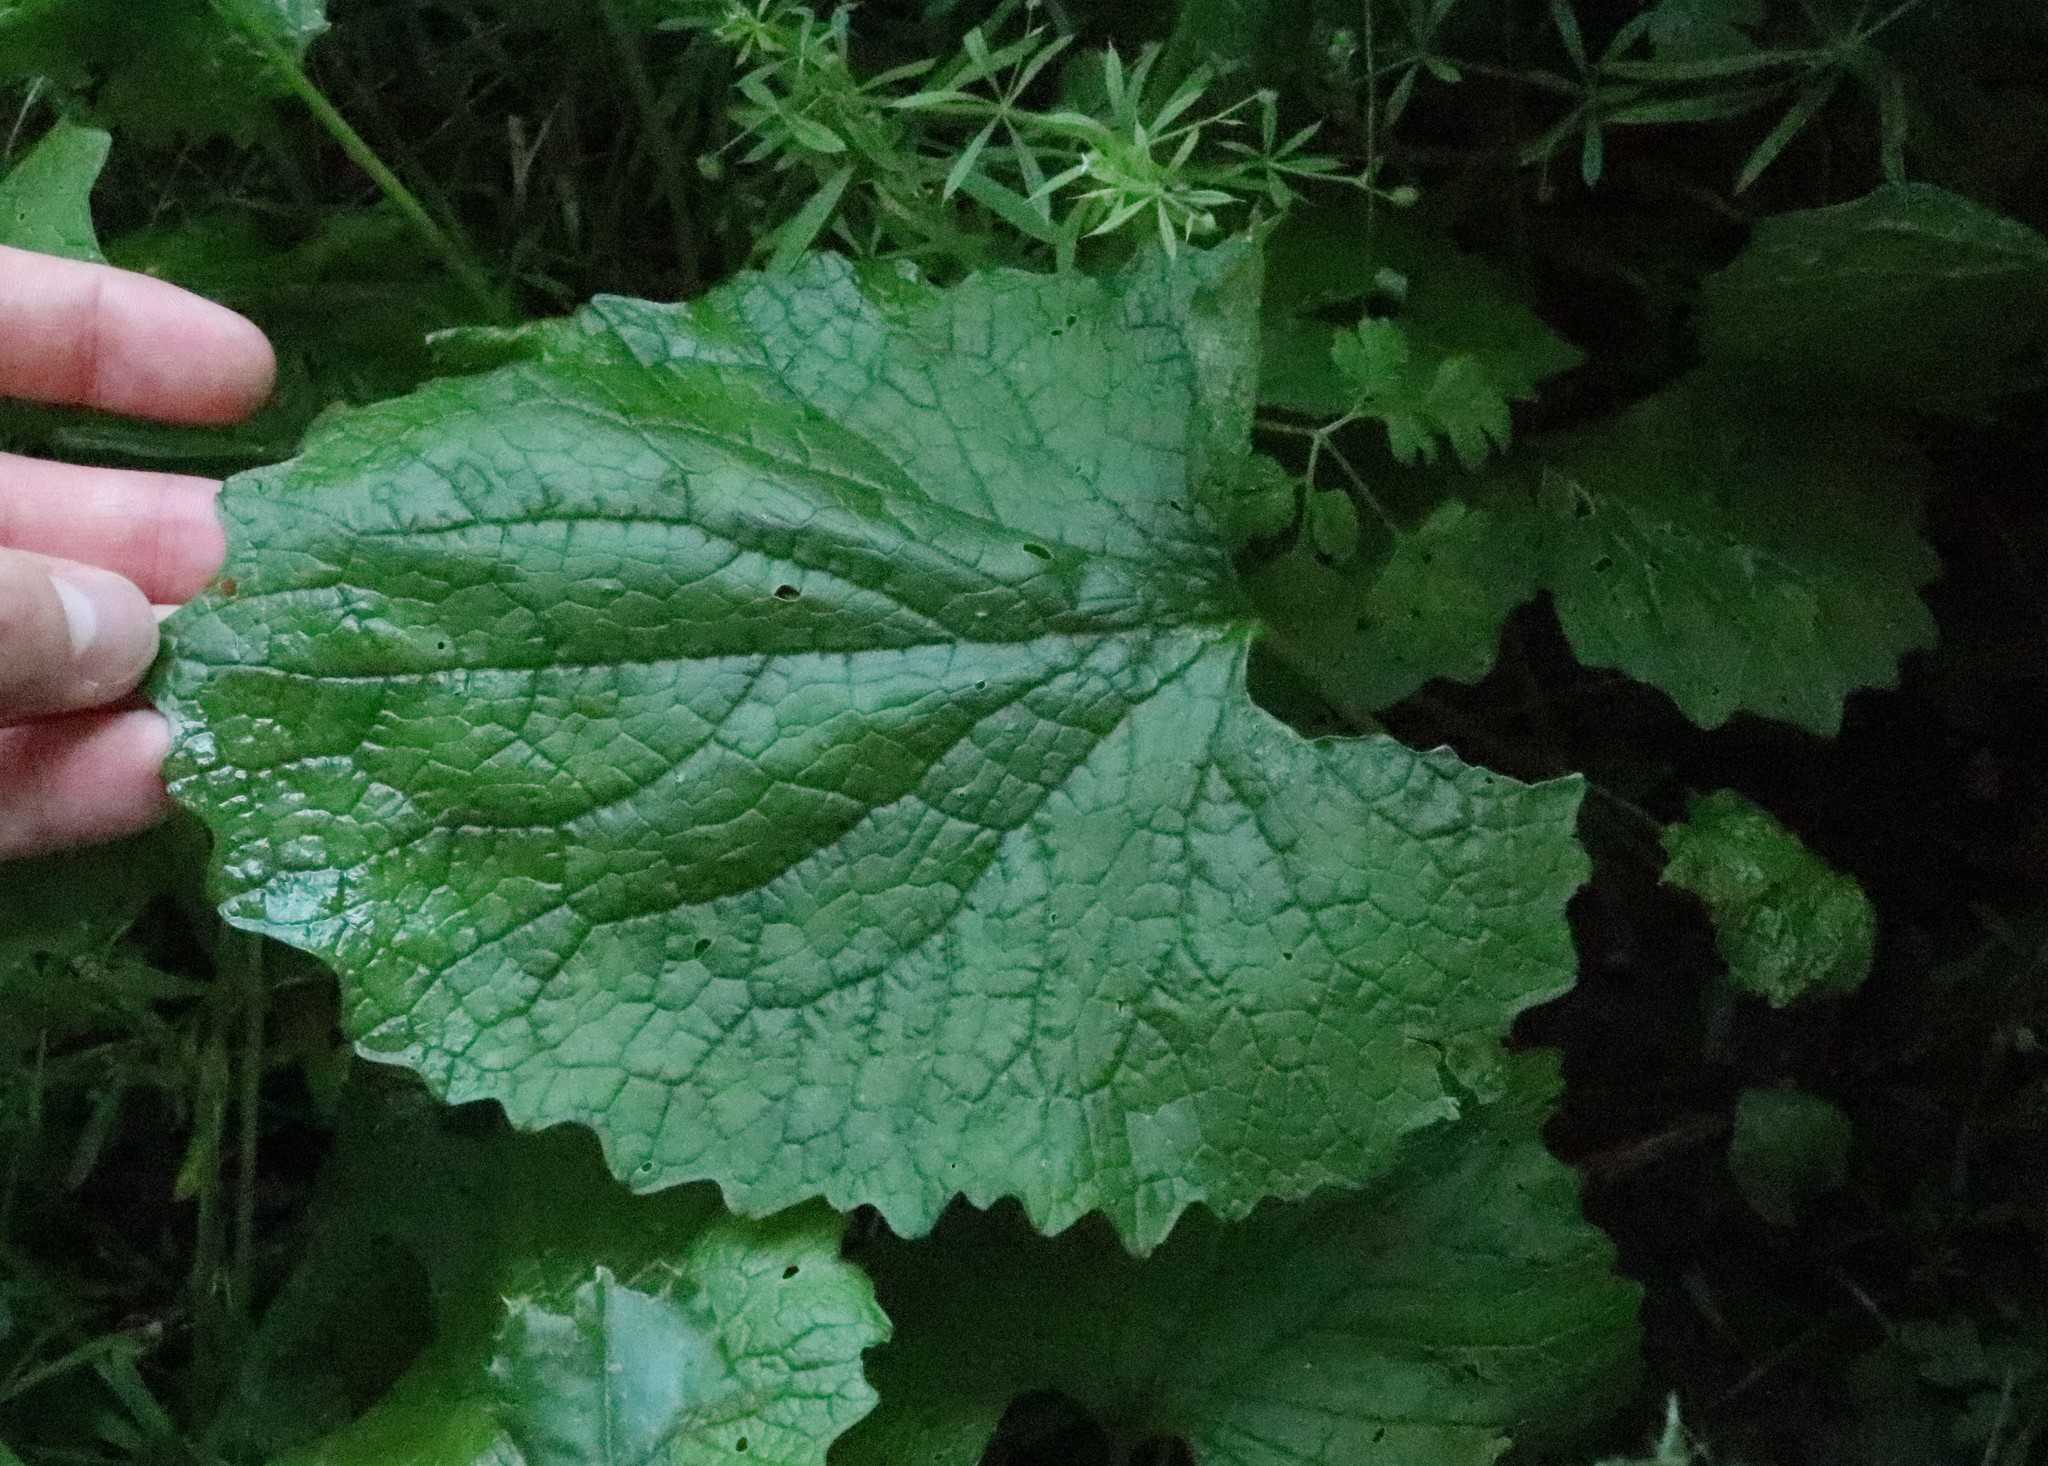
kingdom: Plantae
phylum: Tracheophyta
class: Magnoliopsida
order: Brassicales
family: Brassicaceae
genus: Alliaria
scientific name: Alliaria petiolata
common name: Garlic mustard
